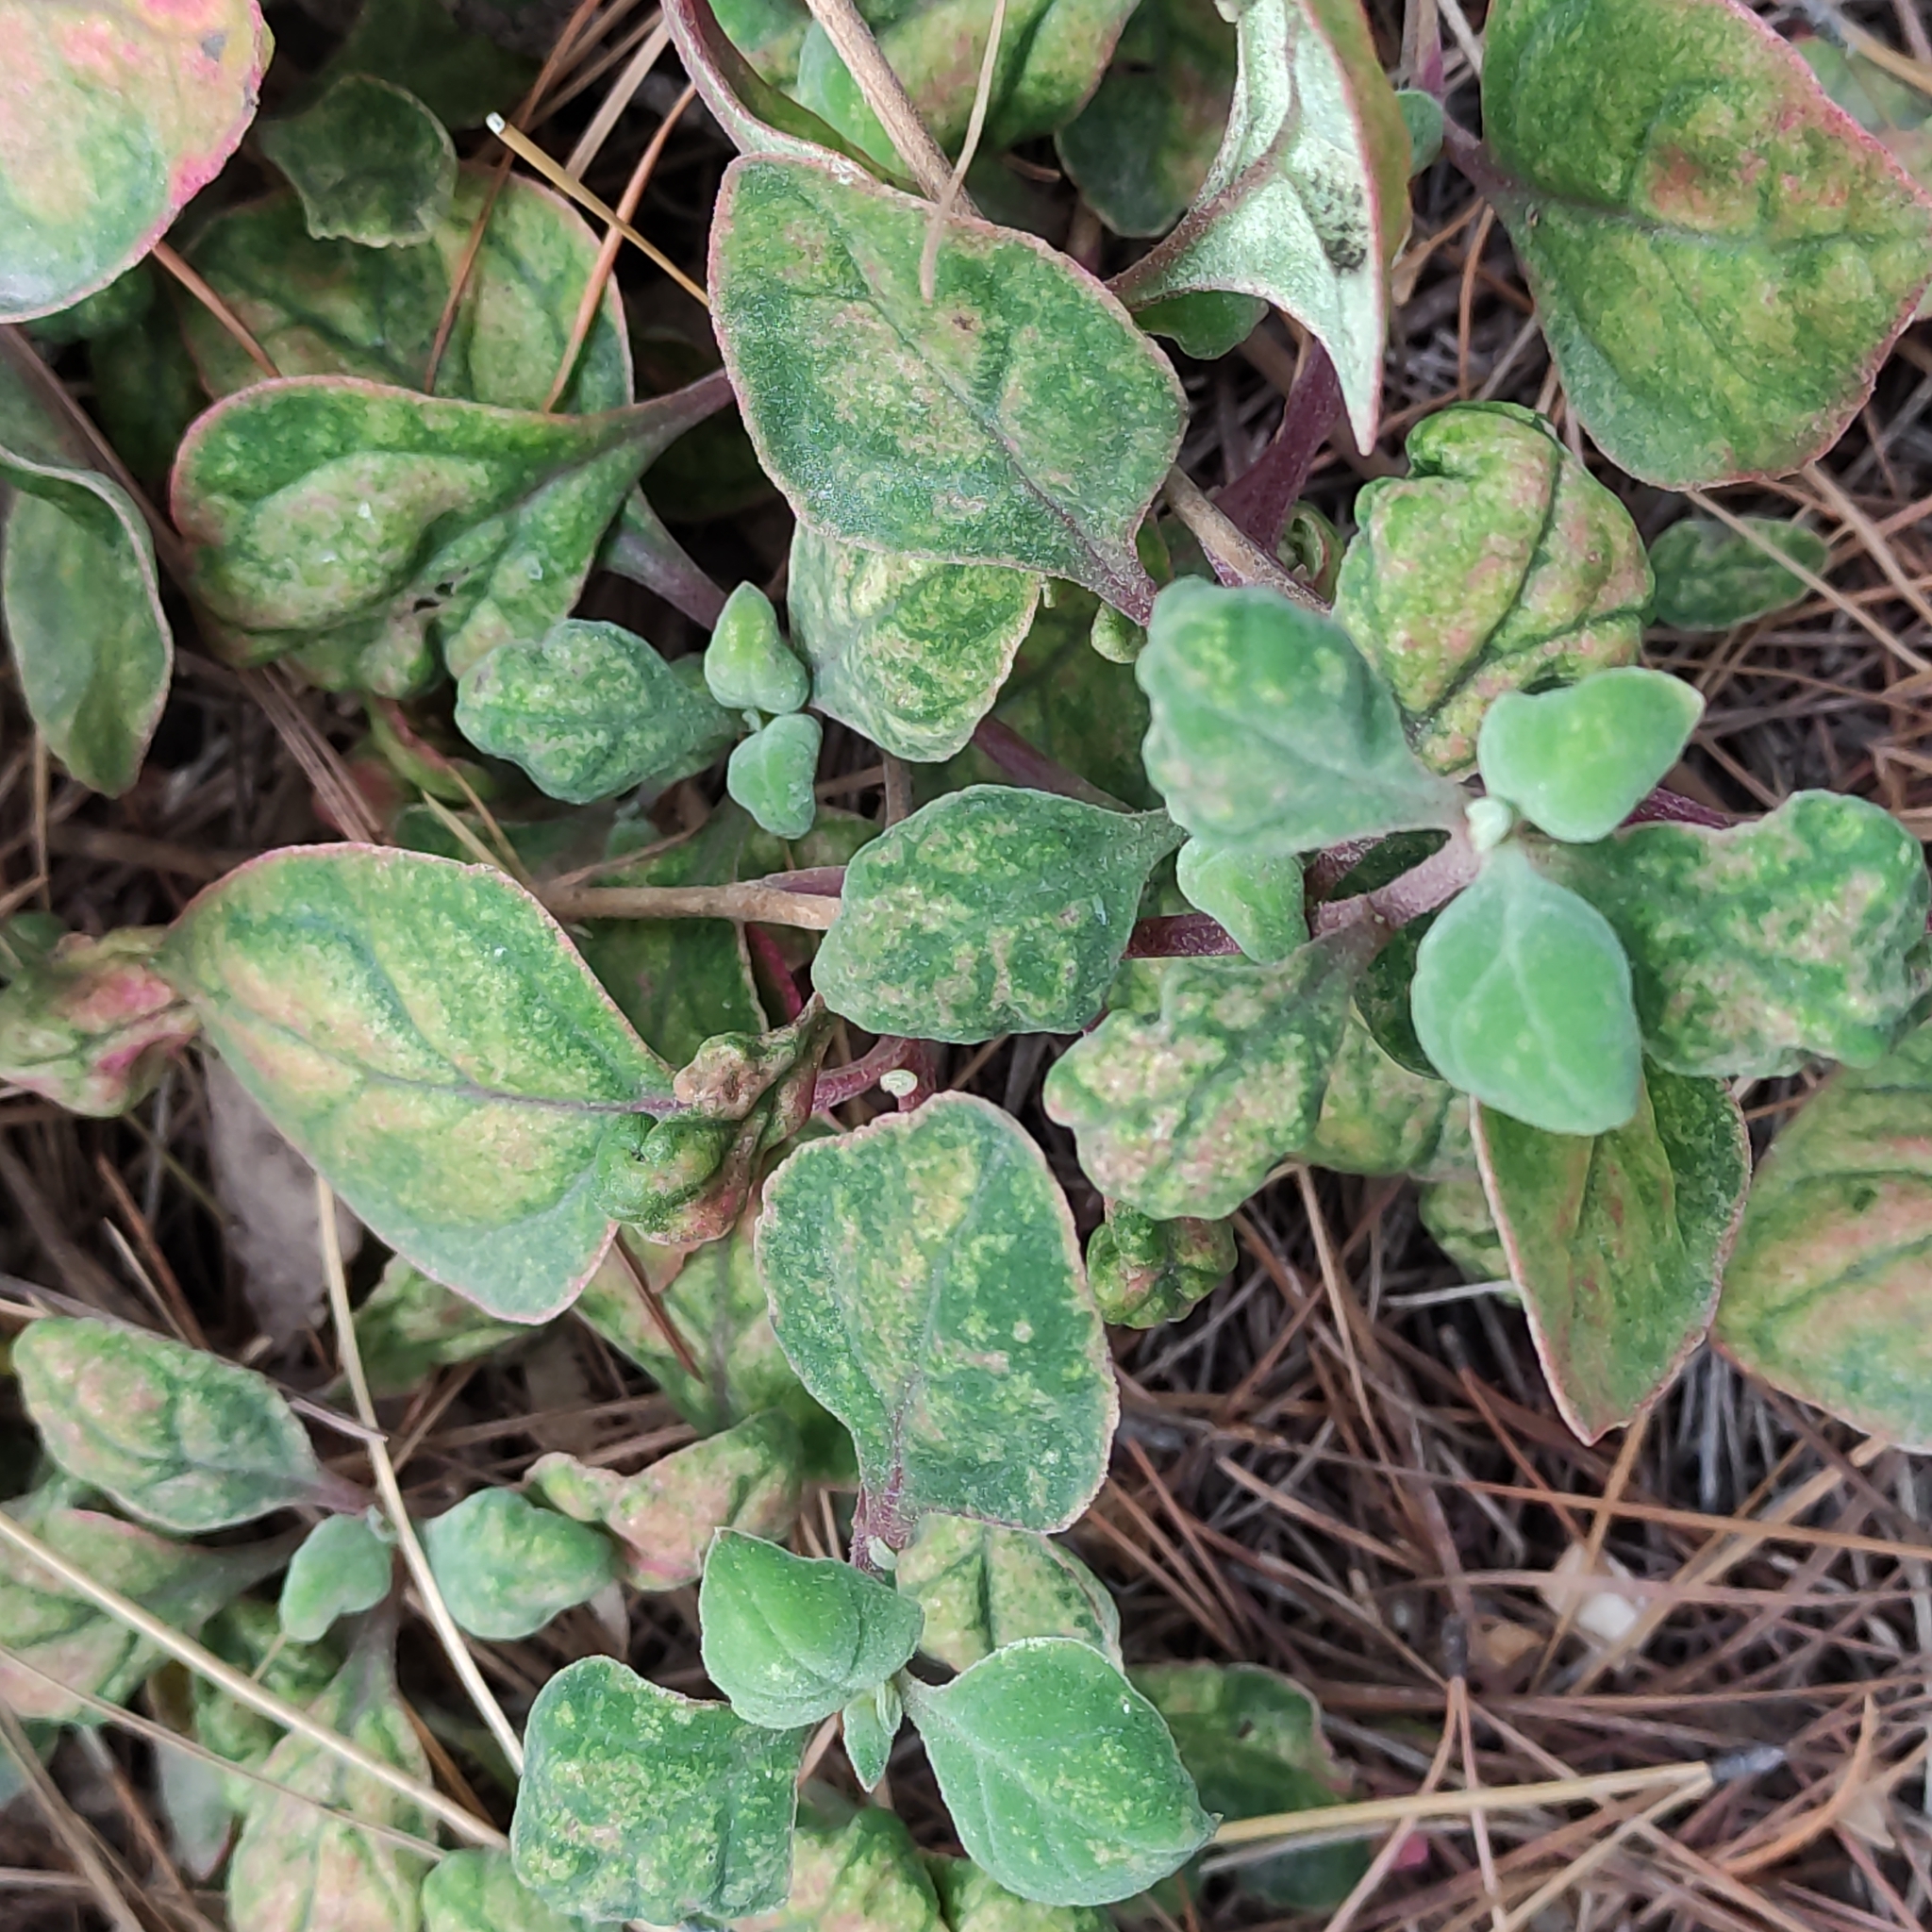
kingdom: Plantae
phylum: Tracheophyta
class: Magnoliopsida
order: Caryophyllales
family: Aizoaceae
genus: Tetragonia
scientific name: Tetragonia implexicoma
